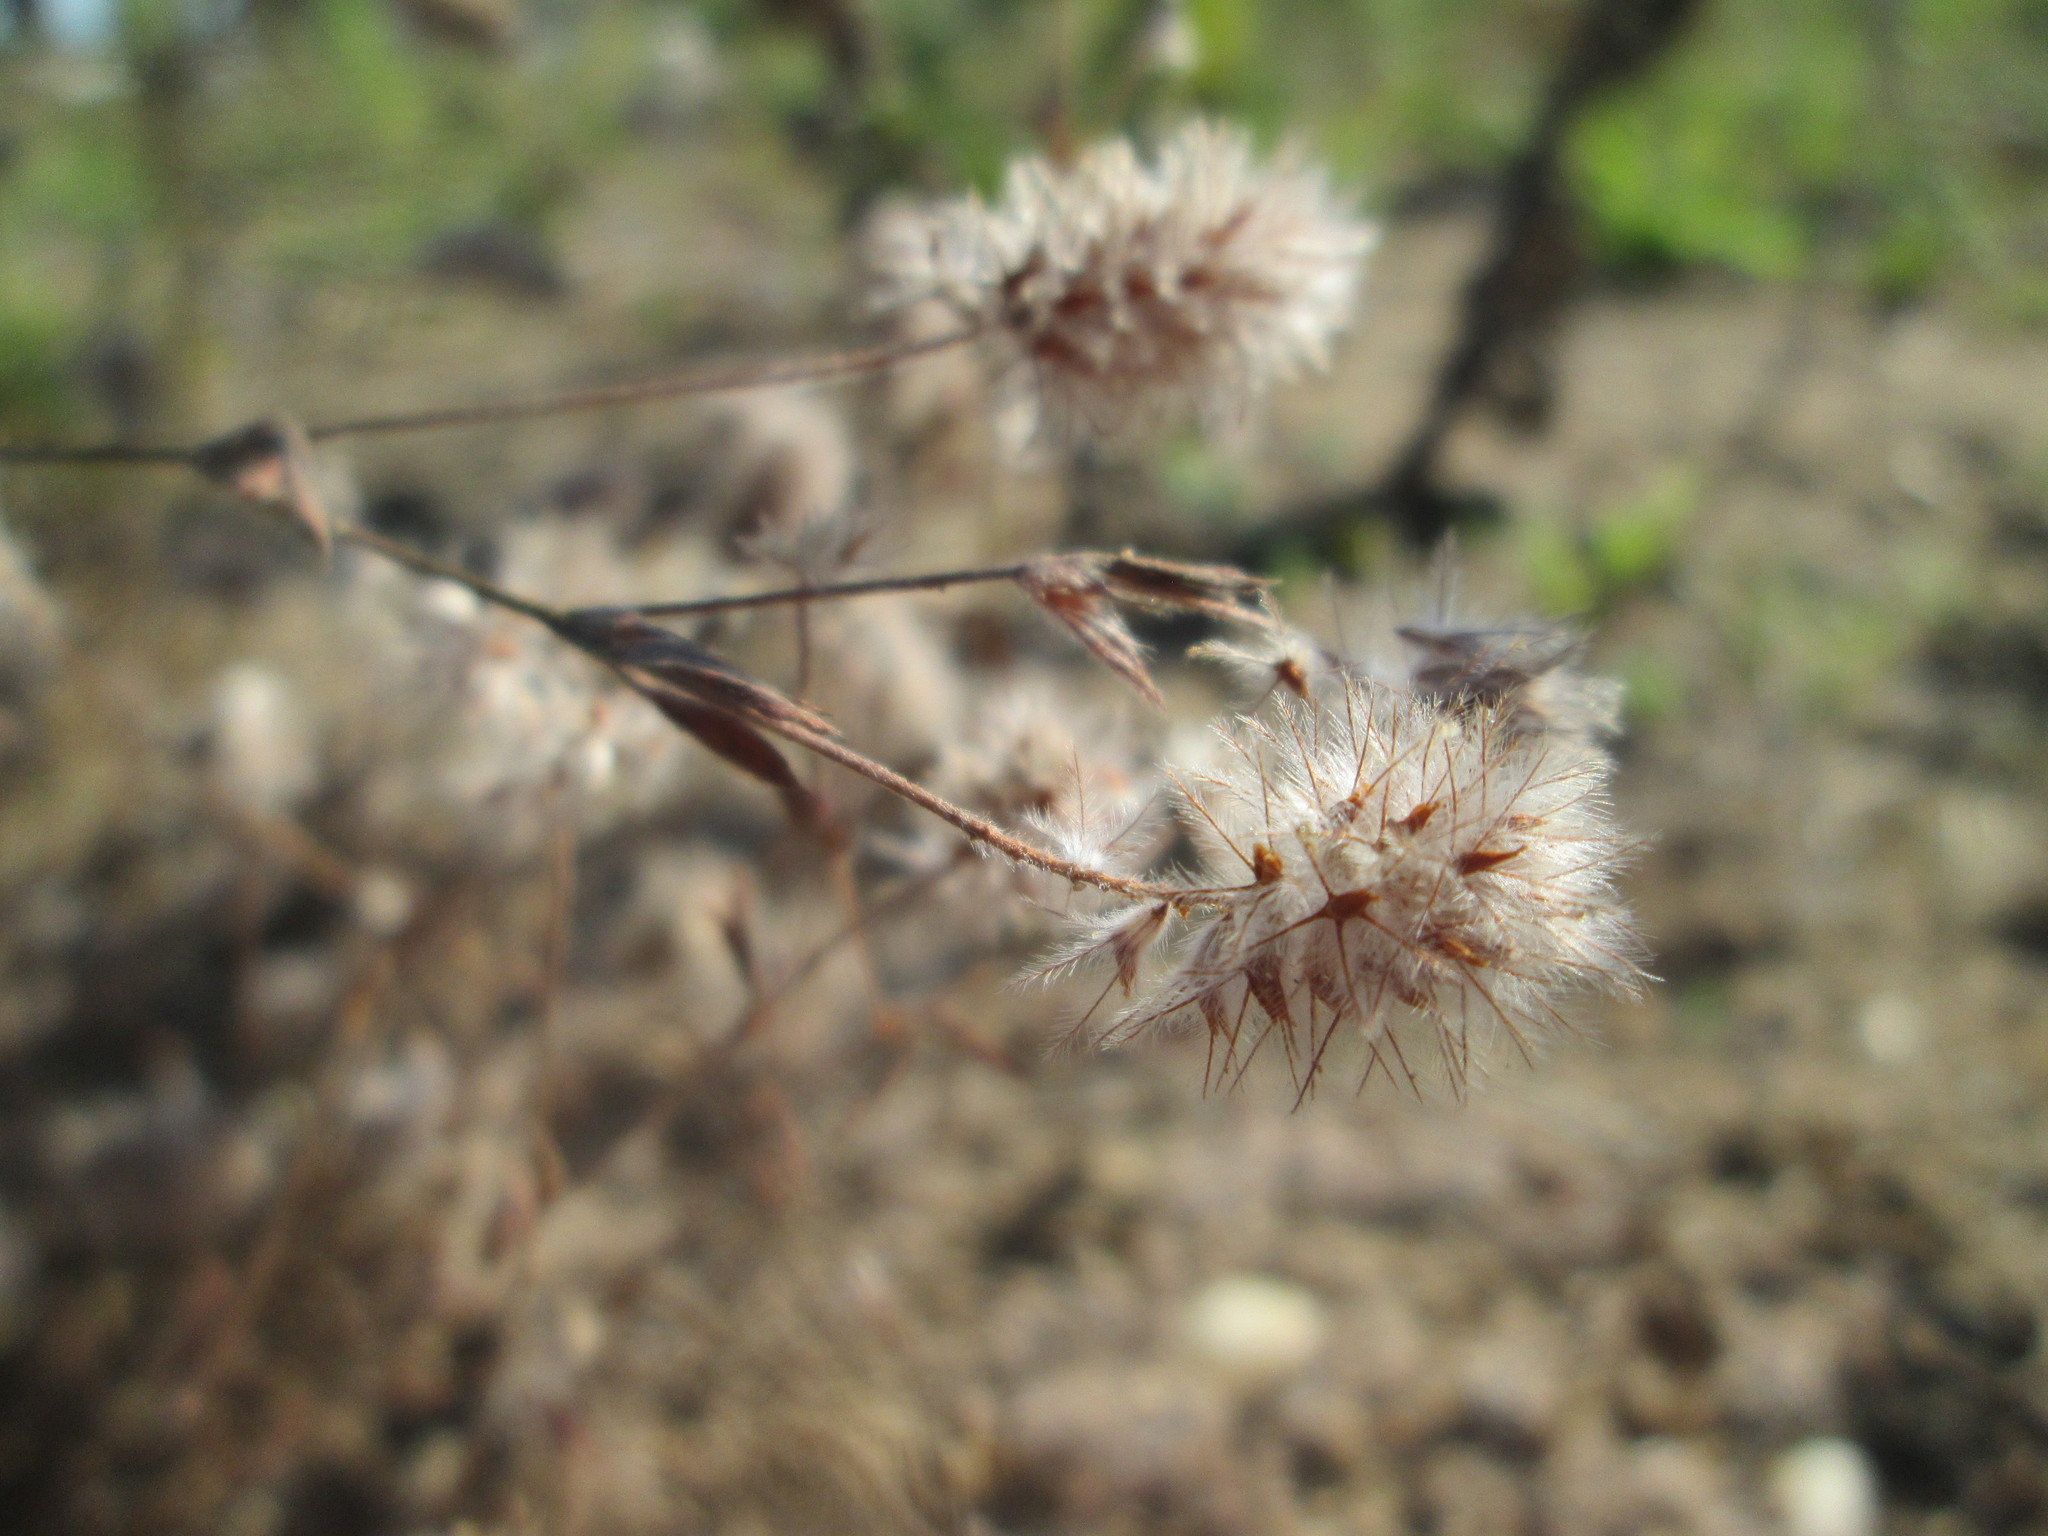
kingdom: Plantae
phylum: Tracheophyta
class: Magnoliopsida
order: Fabales
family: Fabaceae
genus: Trifolium
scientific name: Trifolium arvense
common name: Hare's-foot clover
